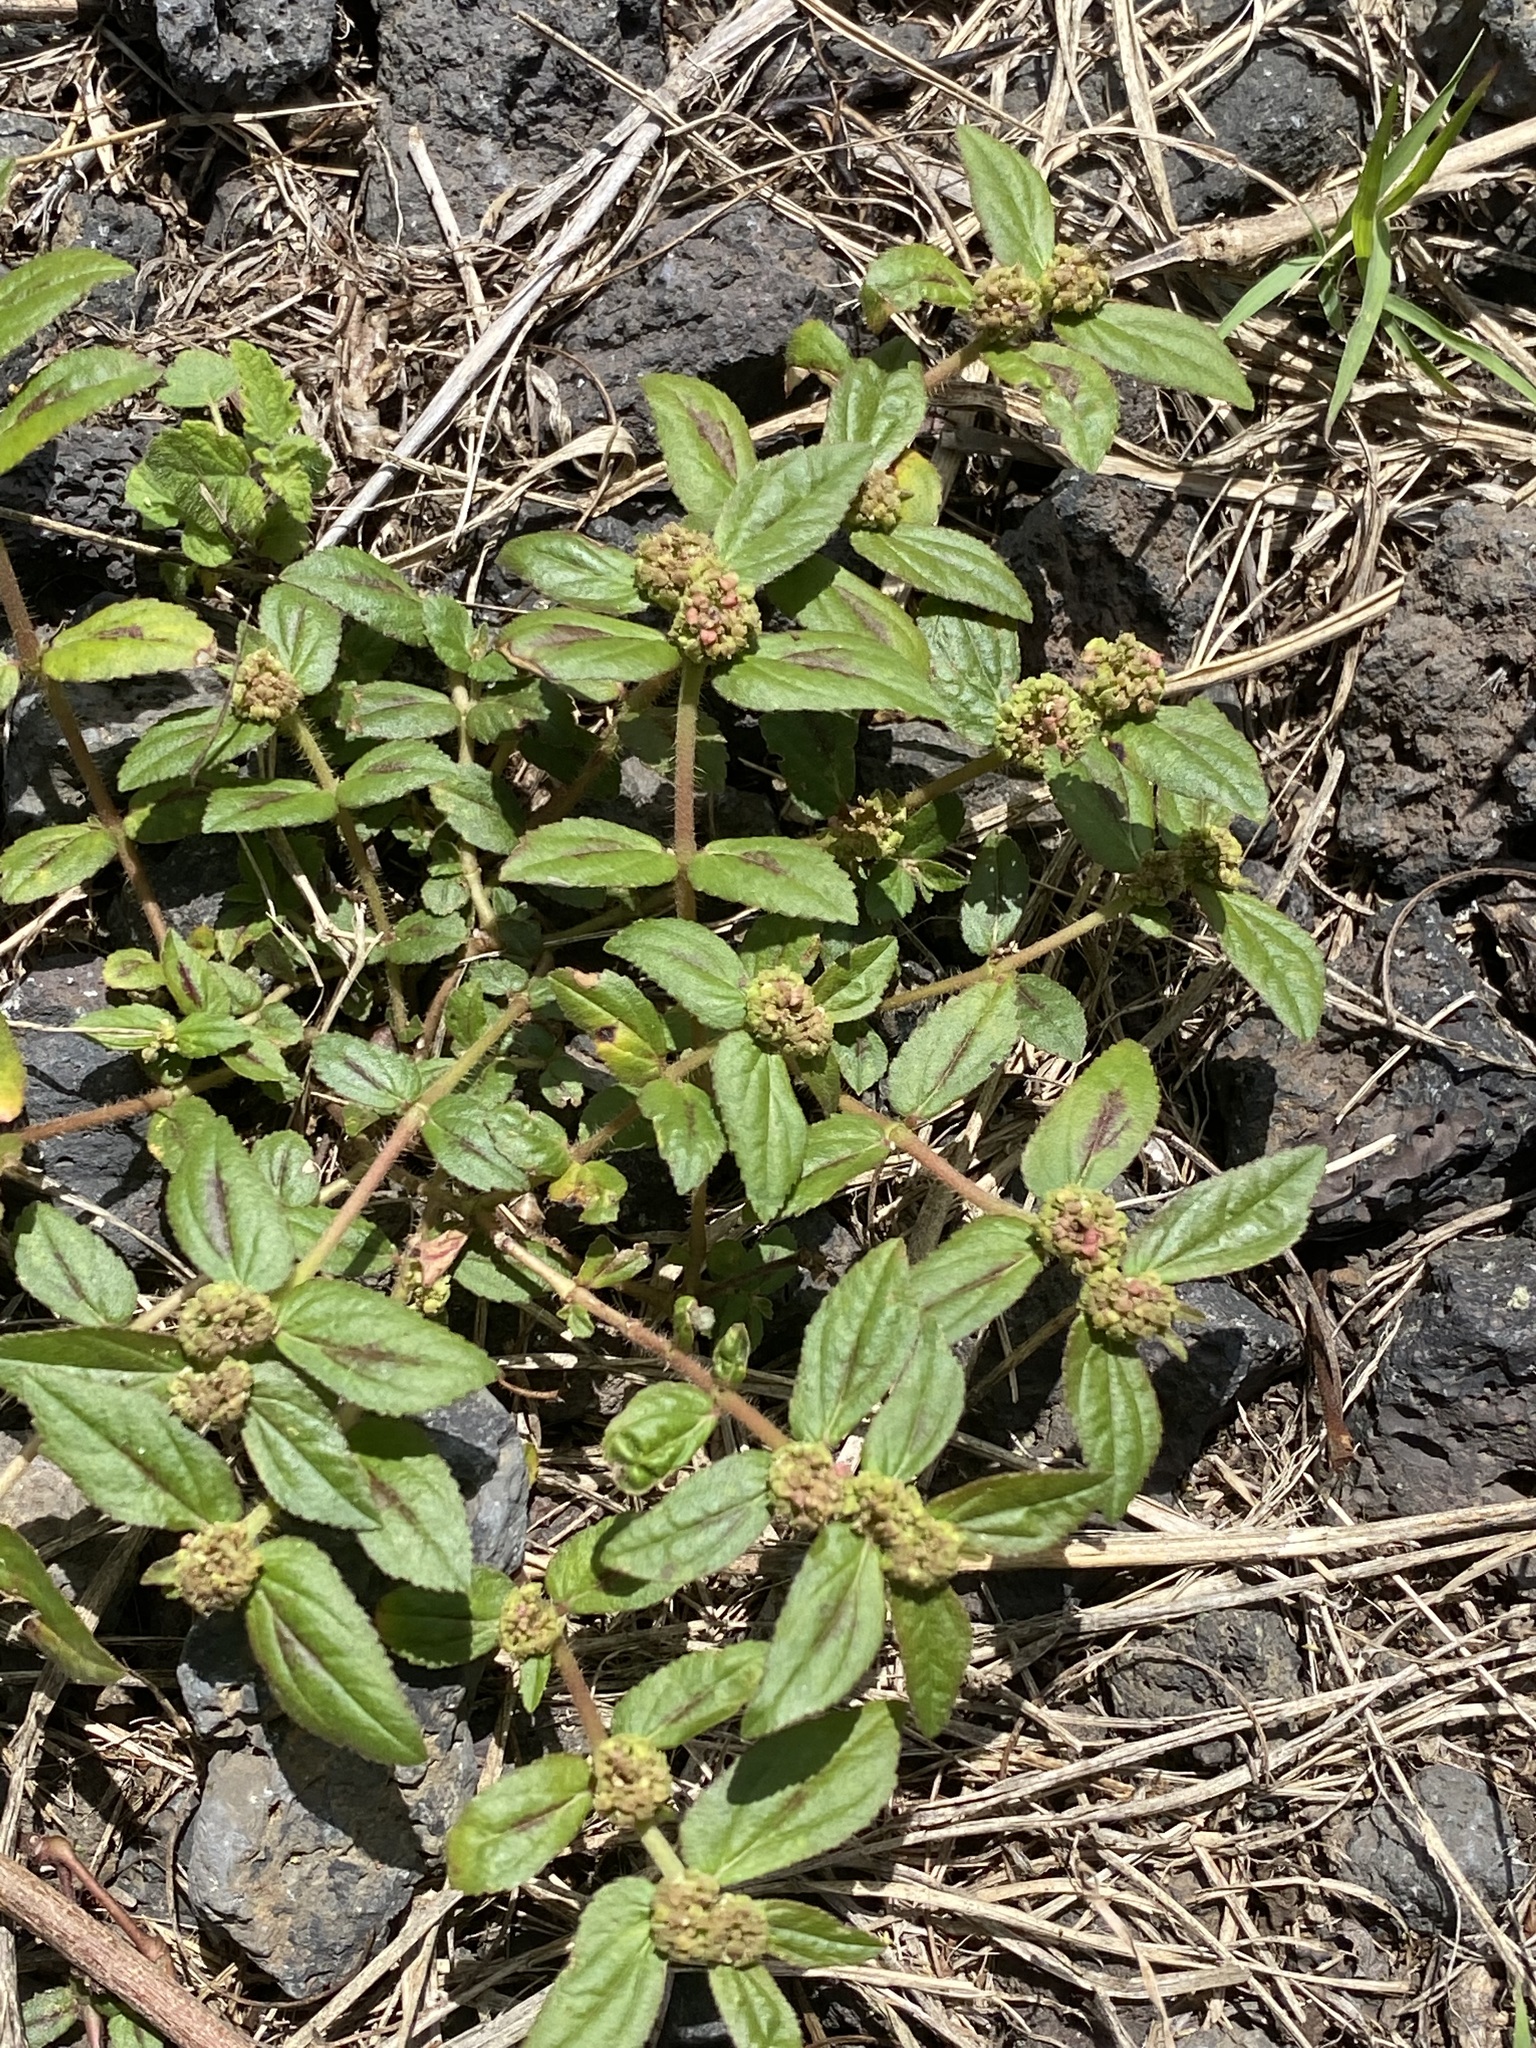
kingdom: Plantae
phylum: Tracheophyta
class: Magnoliopsida
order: Malpighiales
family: Euphorbiaceae
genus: Euphorbia
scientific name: Euphorbia hirta
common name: Pillpod sandmat
